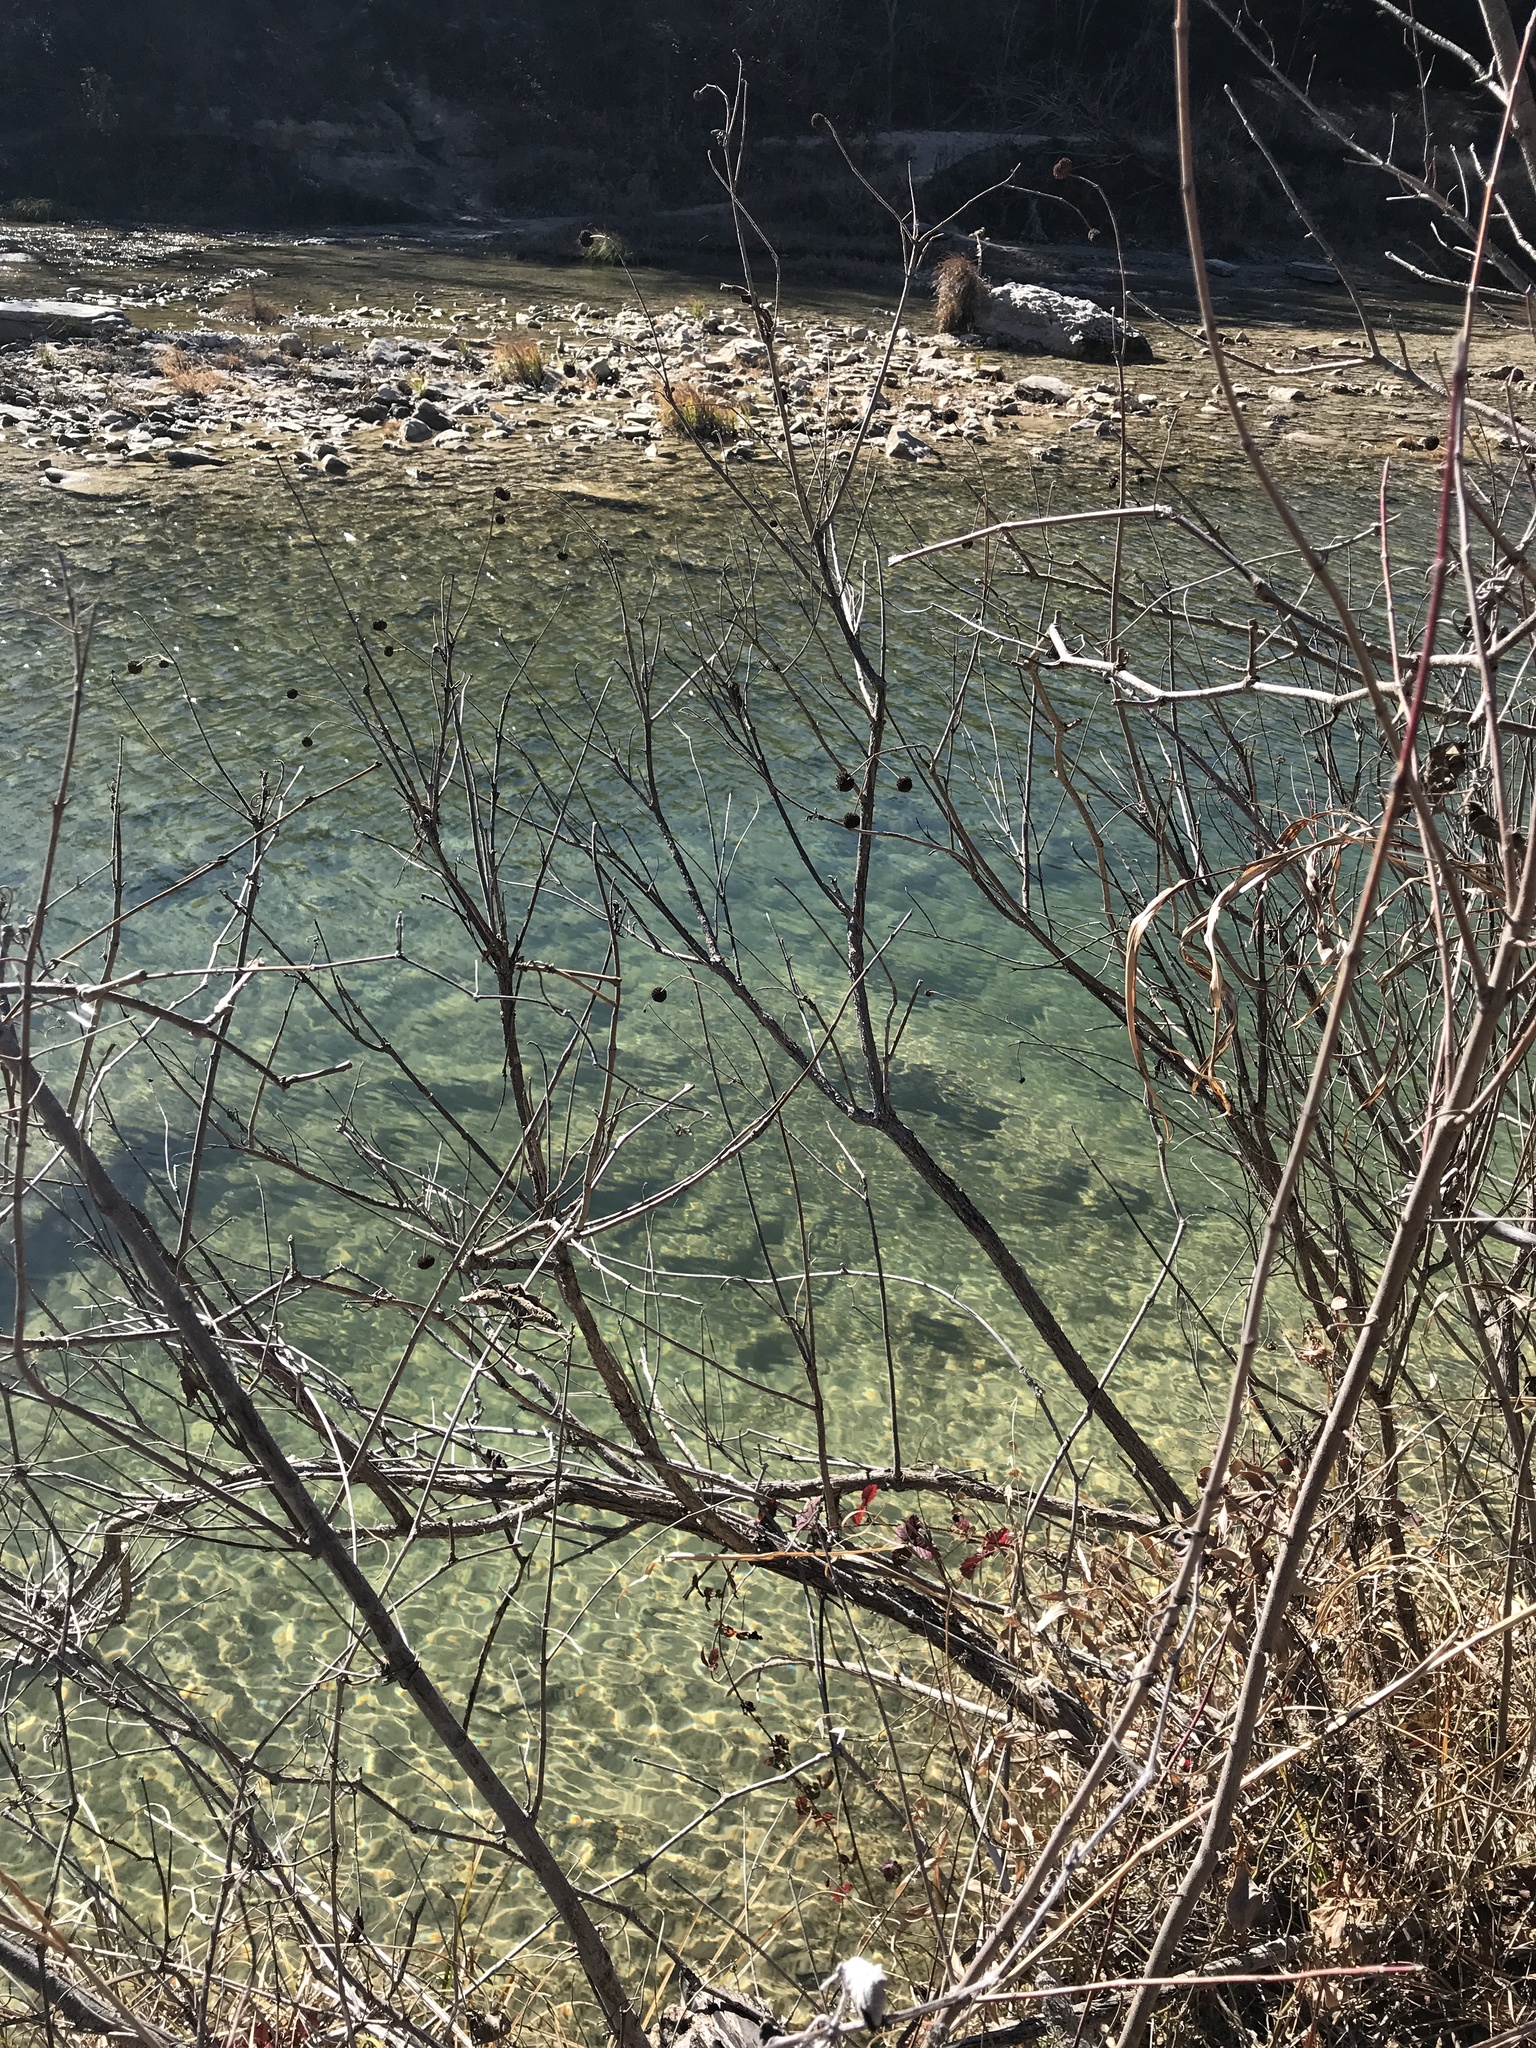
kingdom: Plantae
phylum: Tracheophyta
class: Magnoliopsida
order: Gentianales
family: Rubiaceae
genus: Cephalanthus
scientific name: Cephalanthus occidentalis
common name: Button-willow
